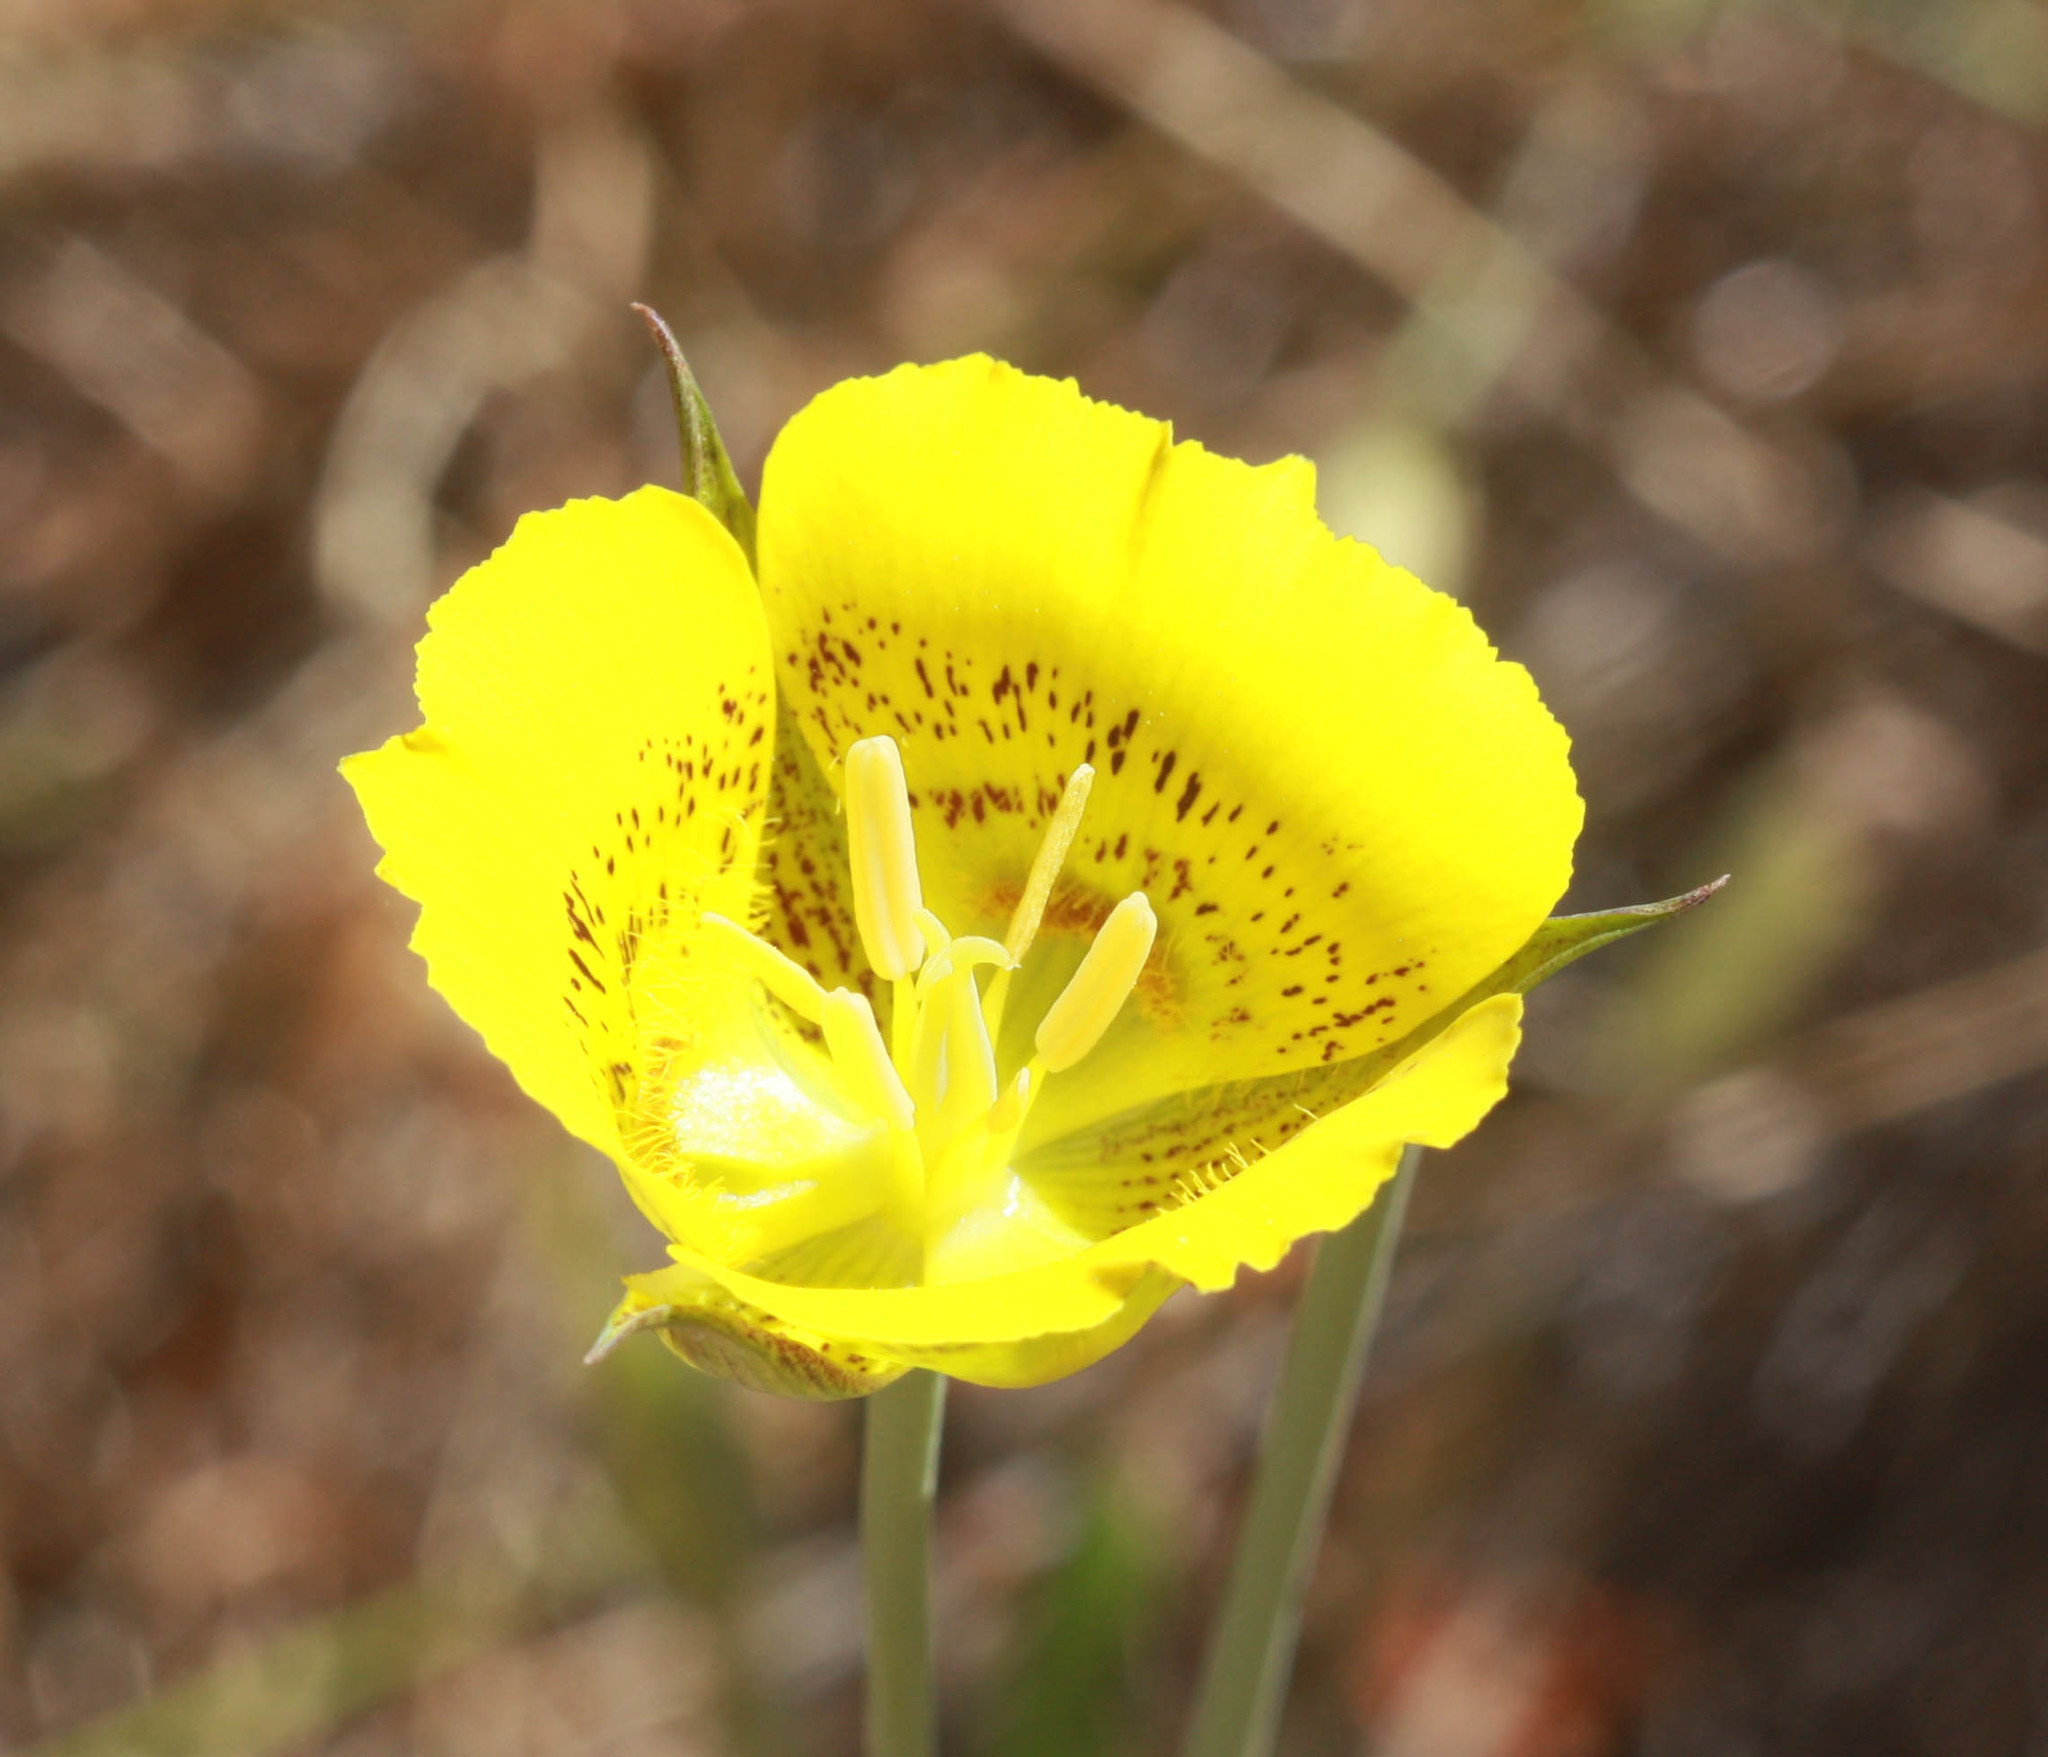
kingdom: Plantae
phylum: Tracheophyta
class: Liliopsida
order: Liliales
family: Liliaceae
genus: Calochortus
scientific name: Calochortus luteus
